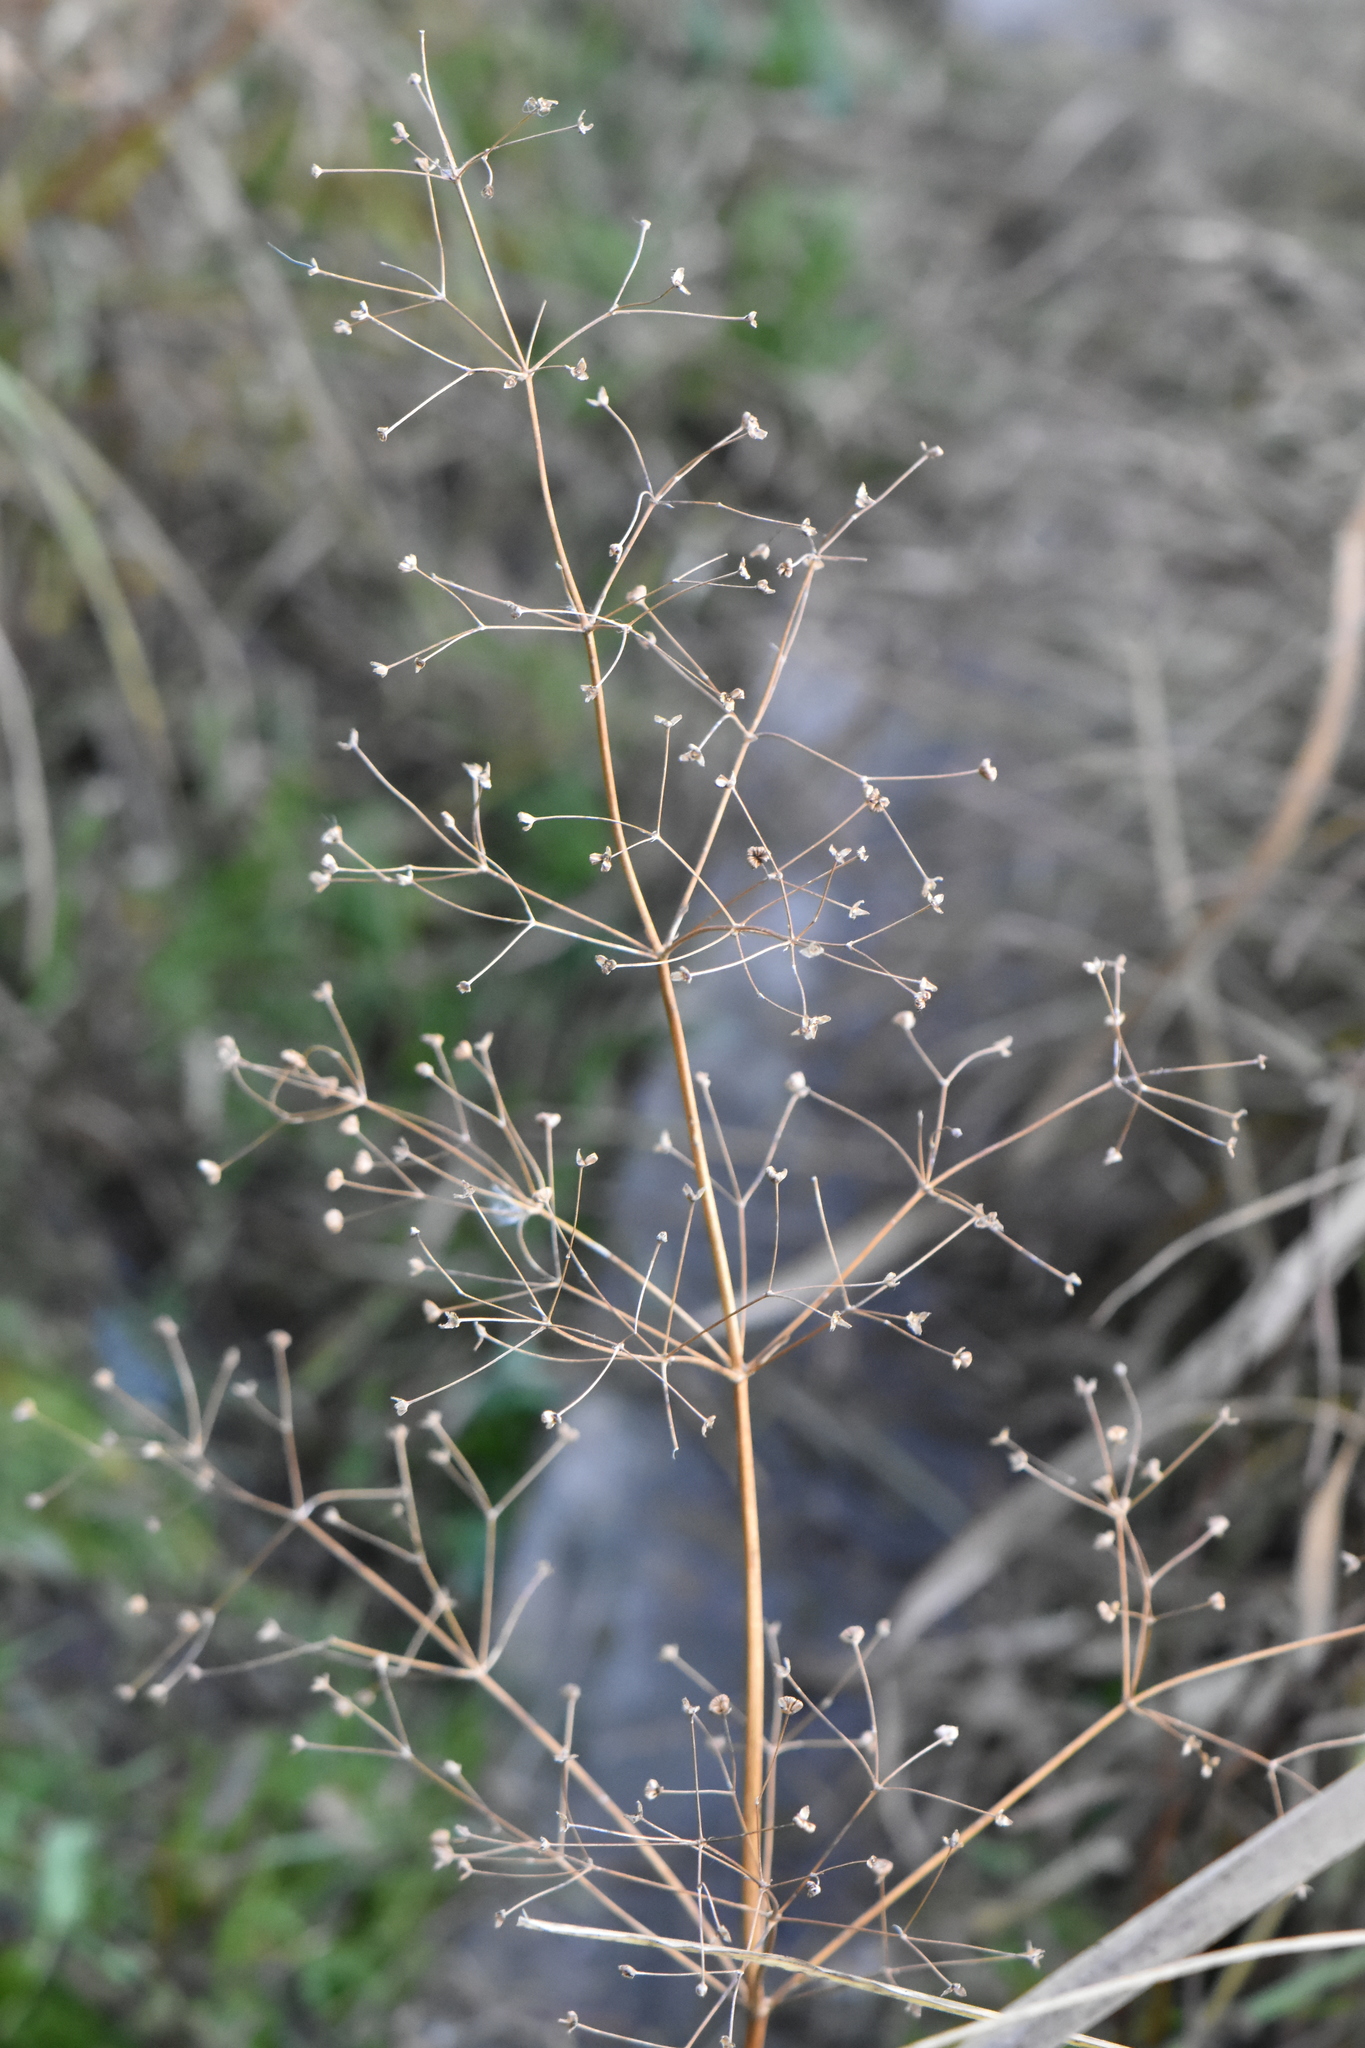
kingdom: Plantae
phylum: Tracheophyta
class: Liliopsida
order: Alismatales
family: Alismataceae
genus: Alisma
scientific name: Alisma plantago-aquatica
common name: Water-plantain
